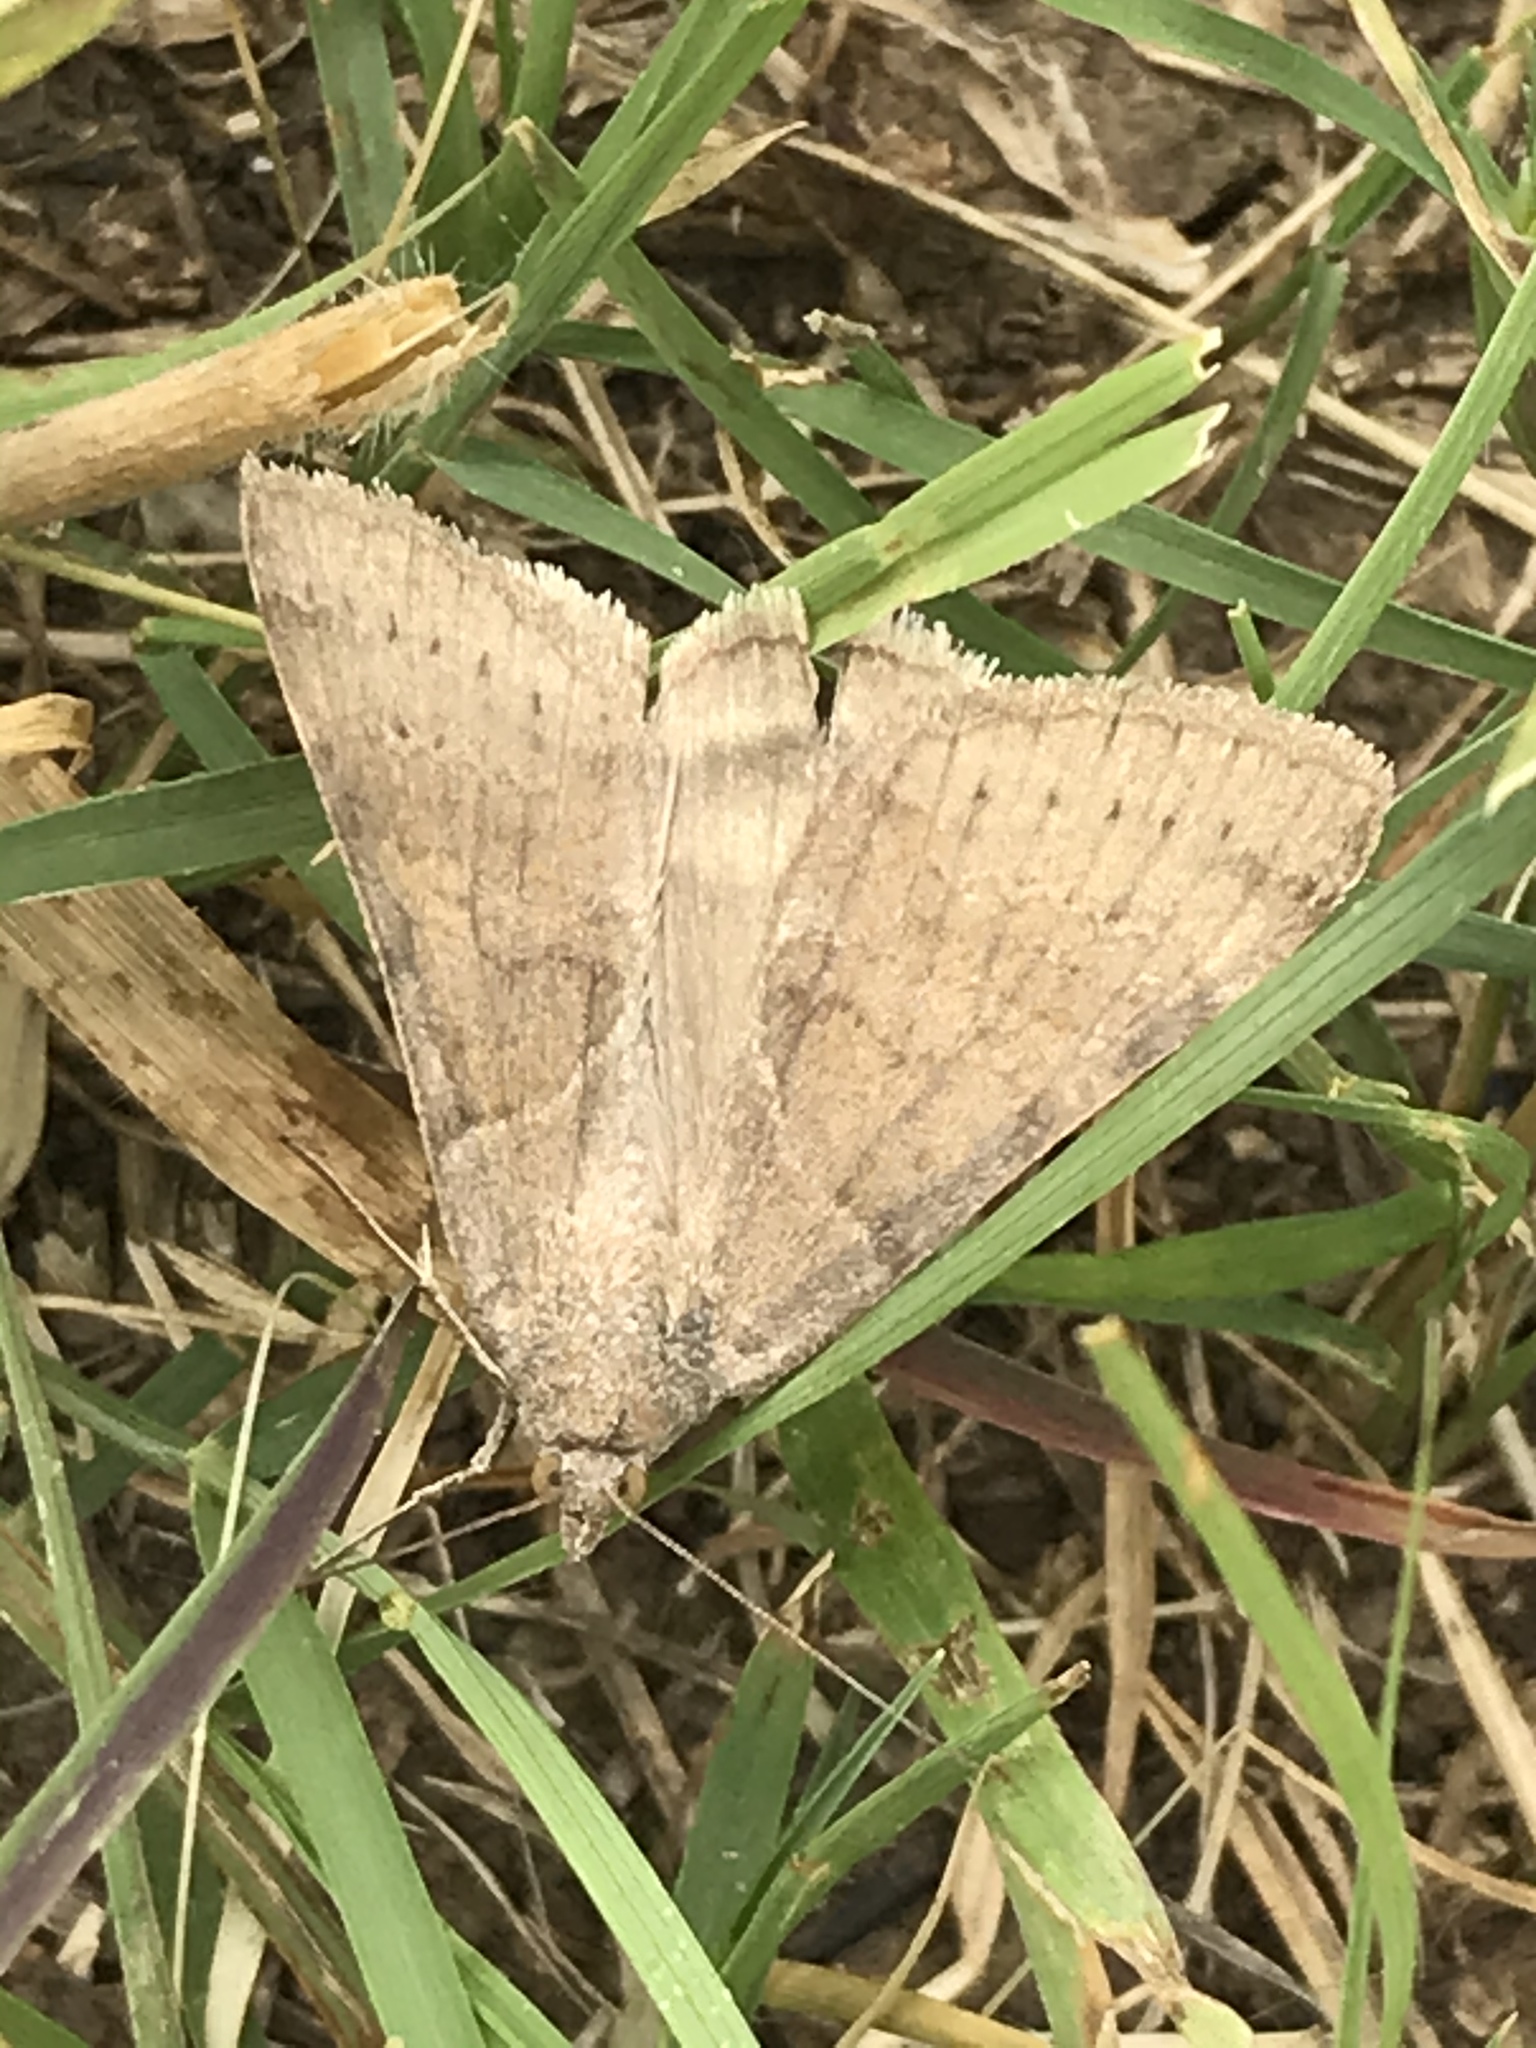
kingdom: Animalia
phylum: Arthropoda
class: Insecta
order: Lepidoptera
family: Erebidae
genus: Caenurgina
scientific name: Caenurgina erechtea
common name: Forage looper moth
